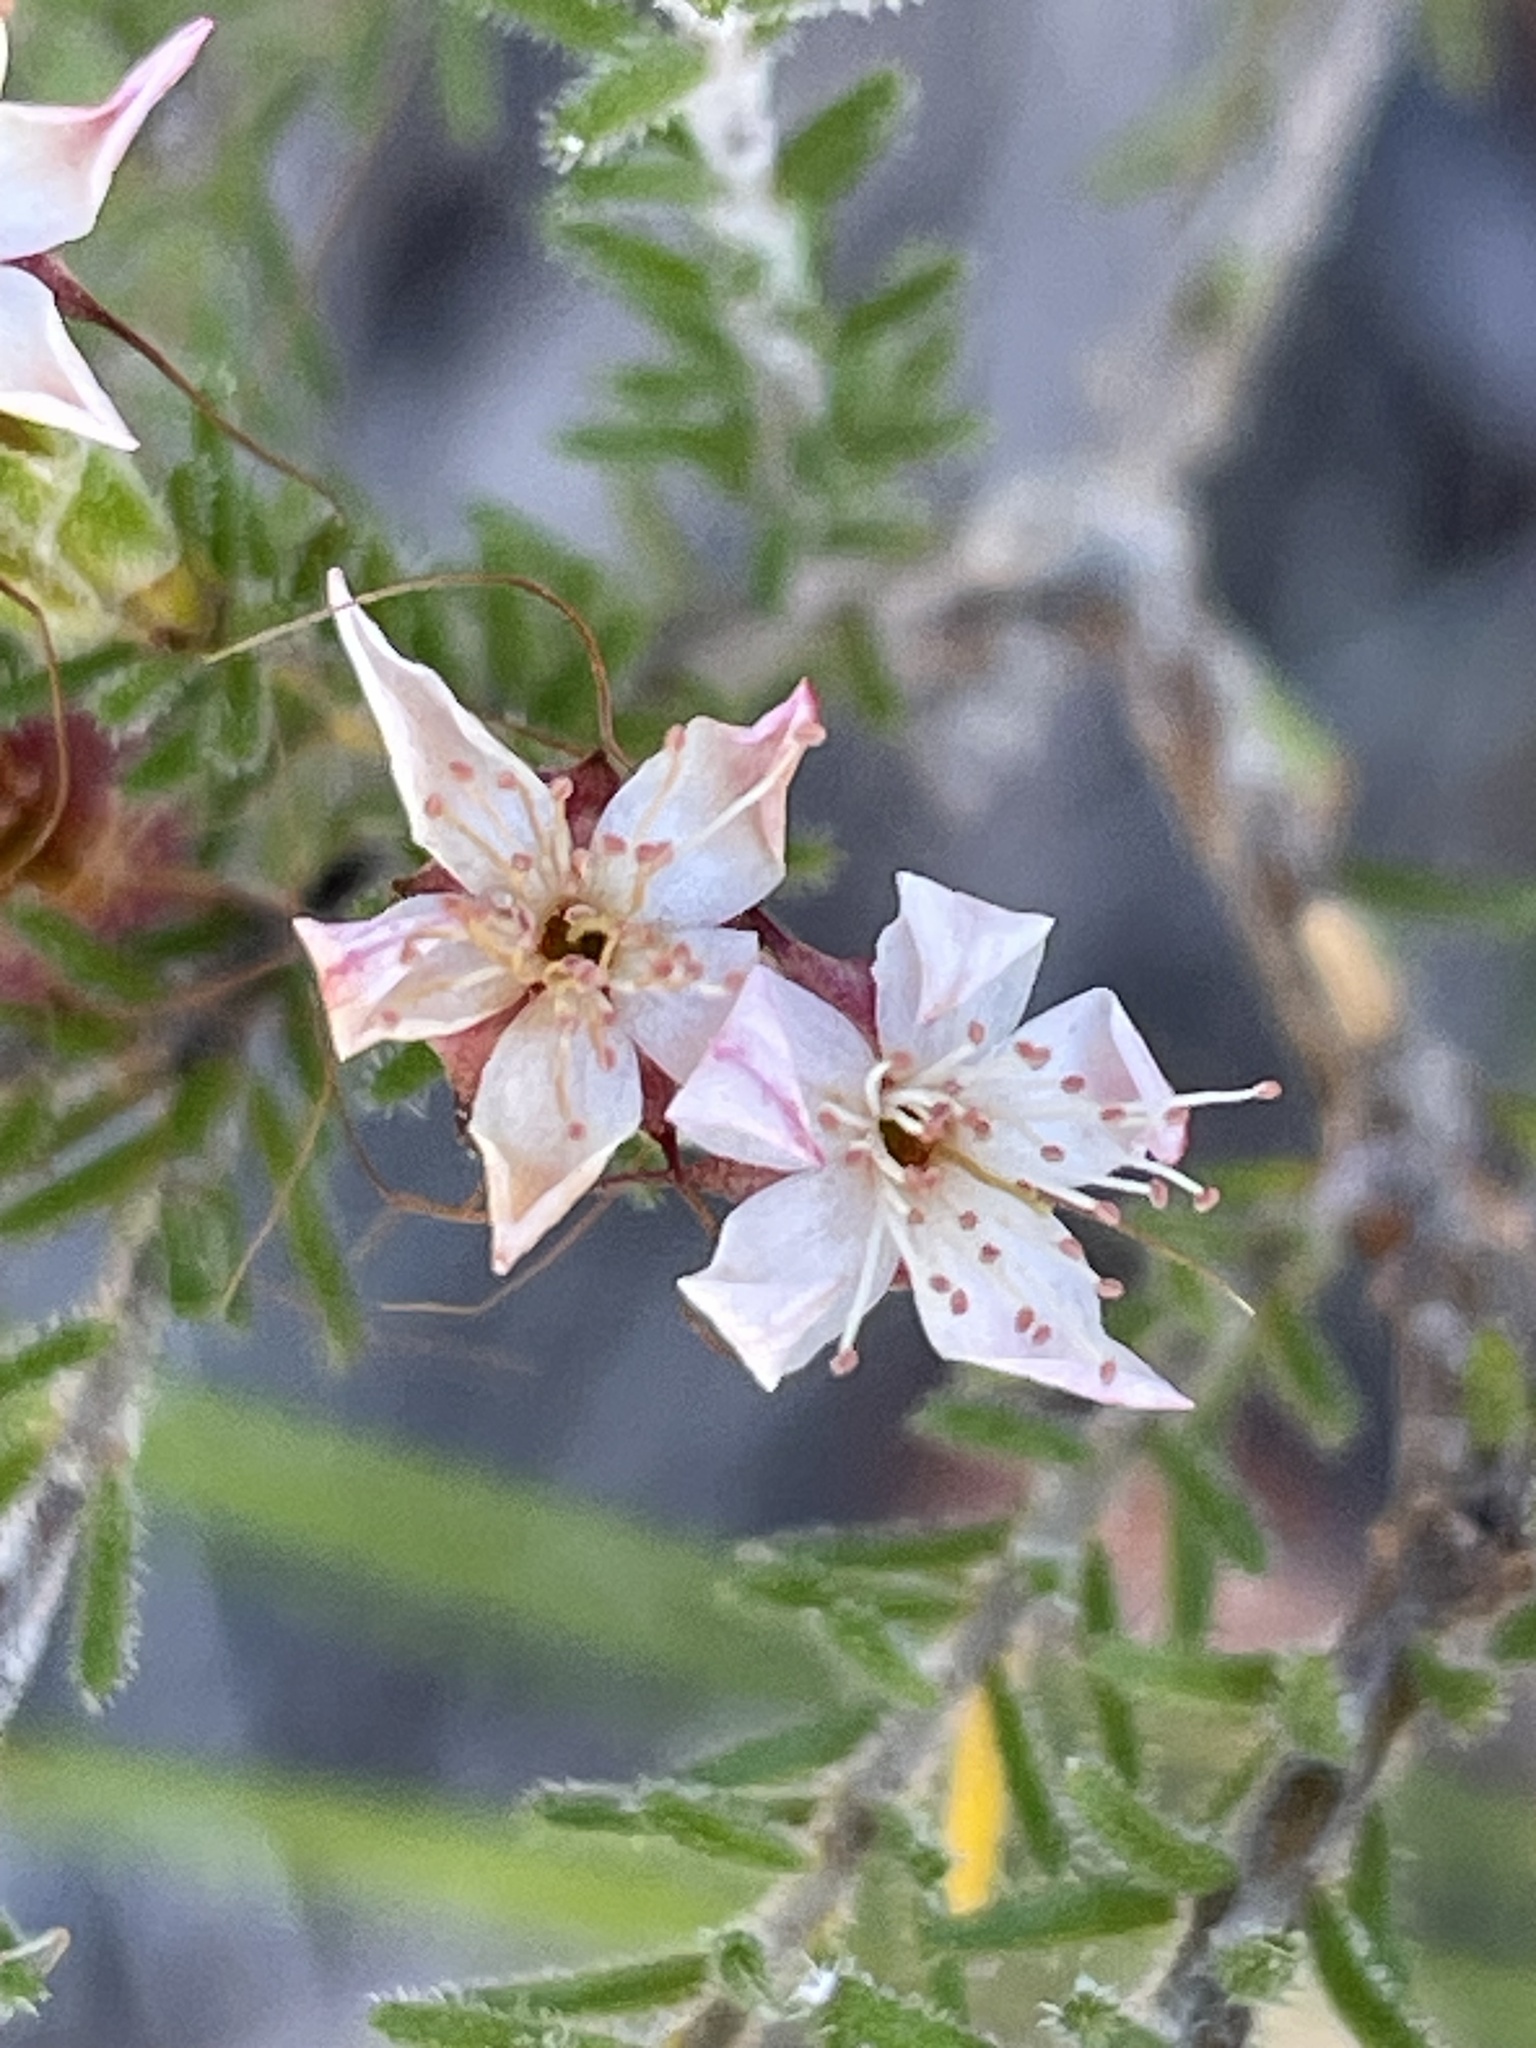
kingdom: Plantae
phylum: Tracheophyta
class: Magnoliopsida
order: Myrtales
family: Myrtaceae
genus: Calytrix
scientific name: Calytrix tetragona
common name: Common fringe myrtle
